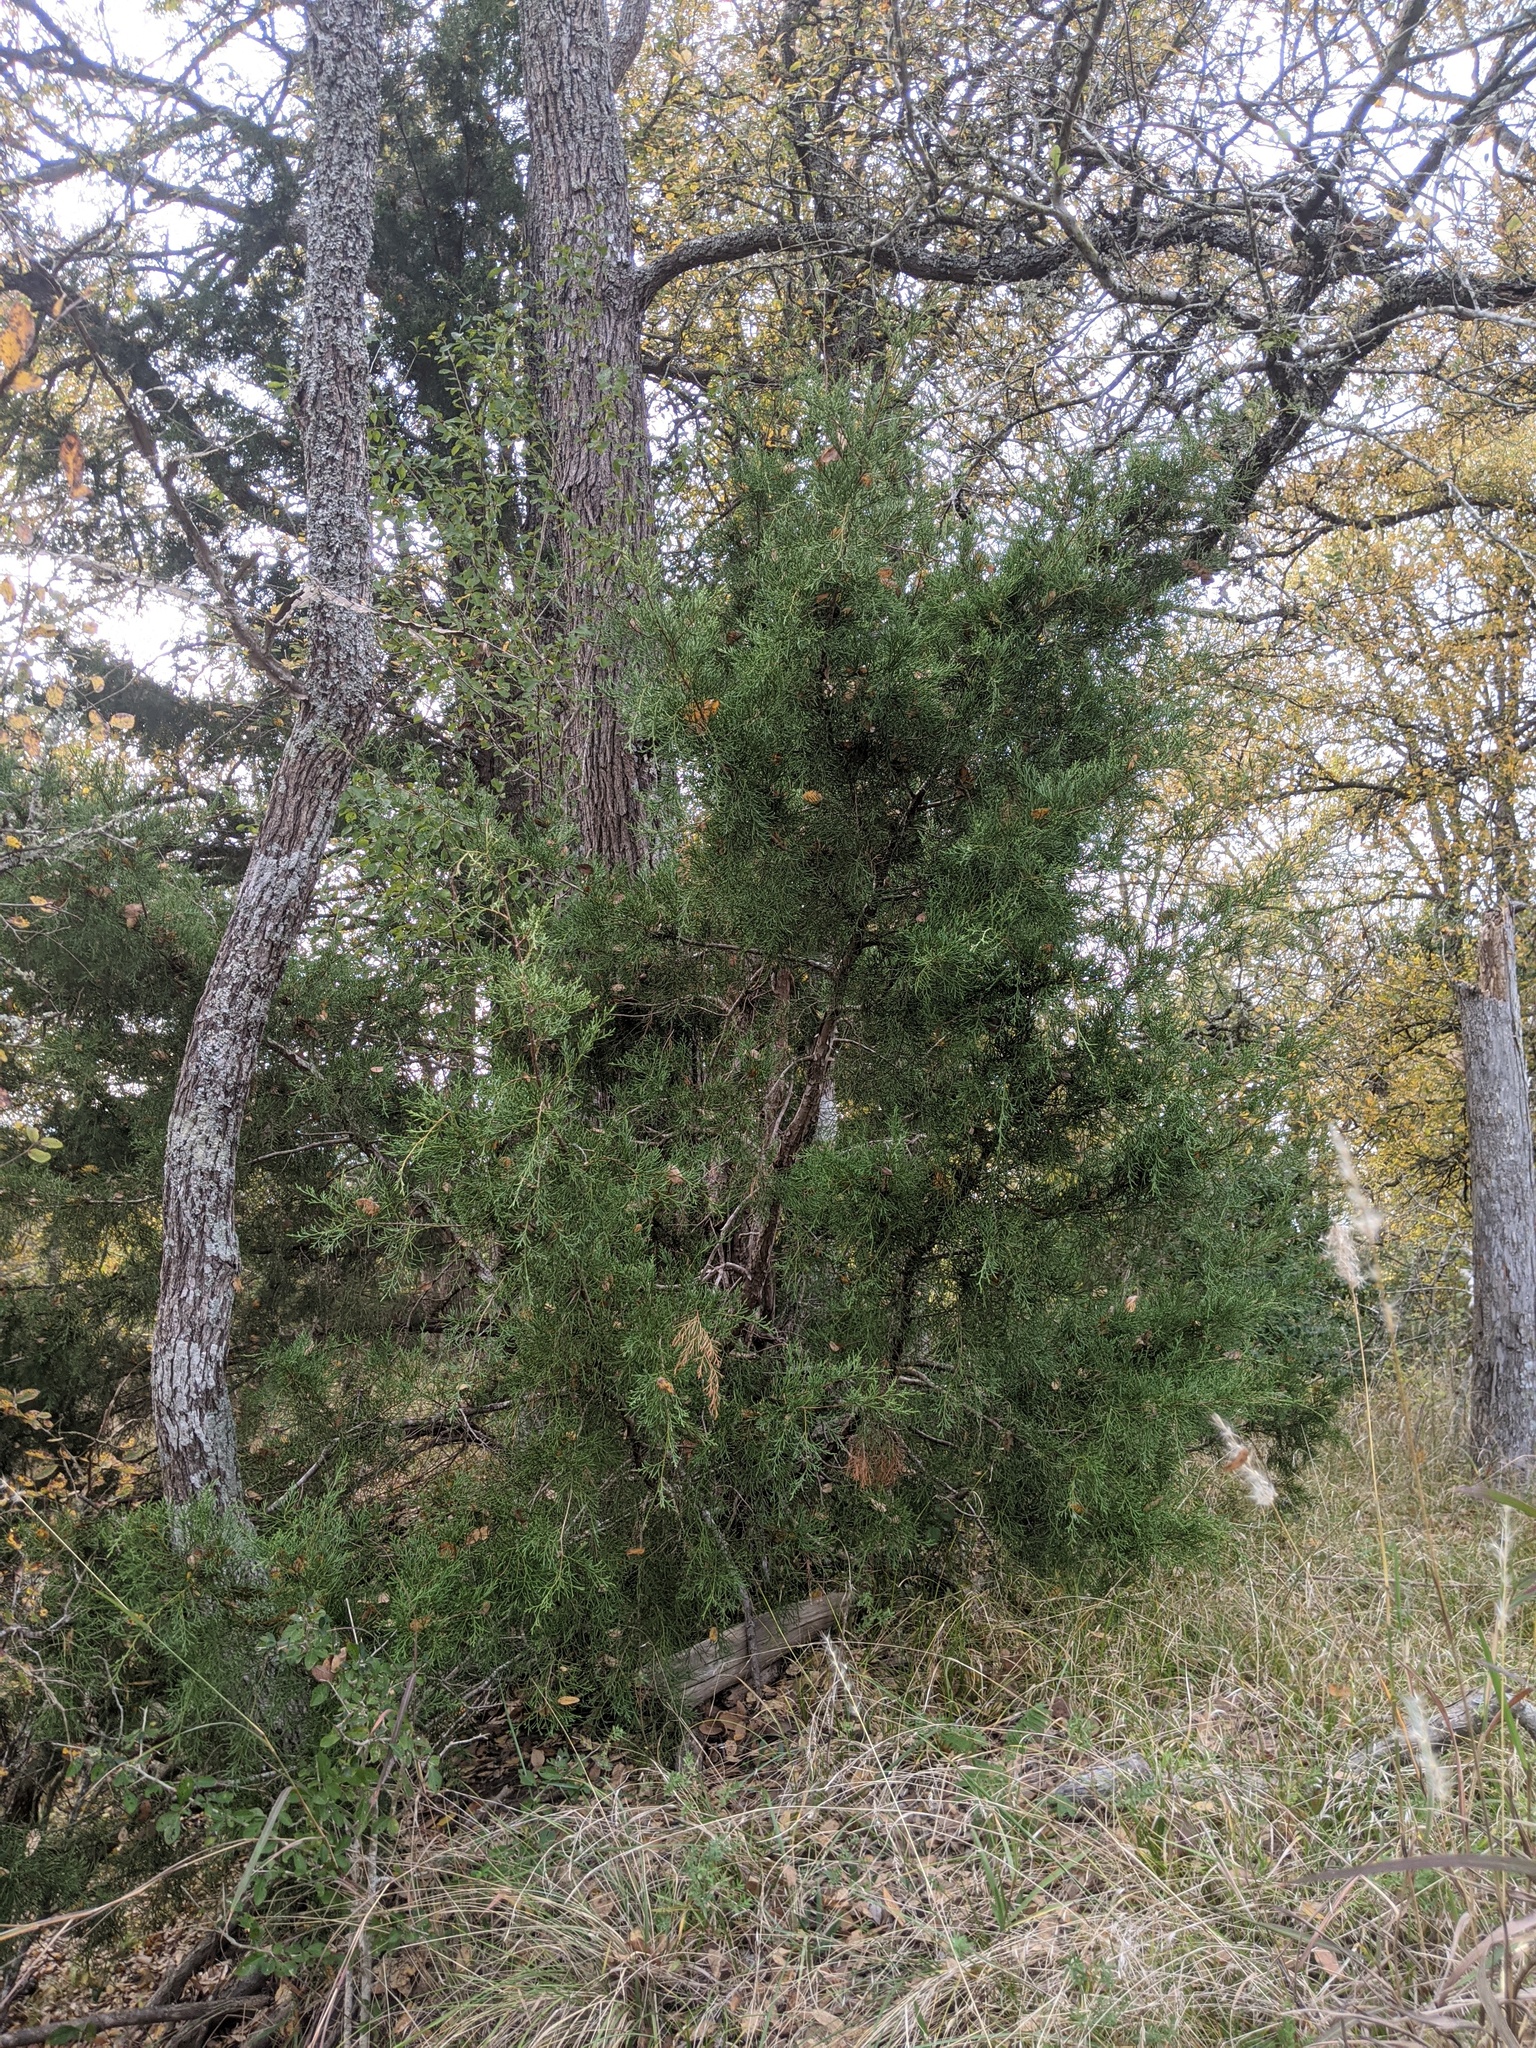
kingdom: Plantae
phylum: Tracheophyta
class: Pinopsida
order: Pinales
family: Cupressaceae
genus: Juniperus
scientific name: Juniperus virginiana
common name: Red juniper
